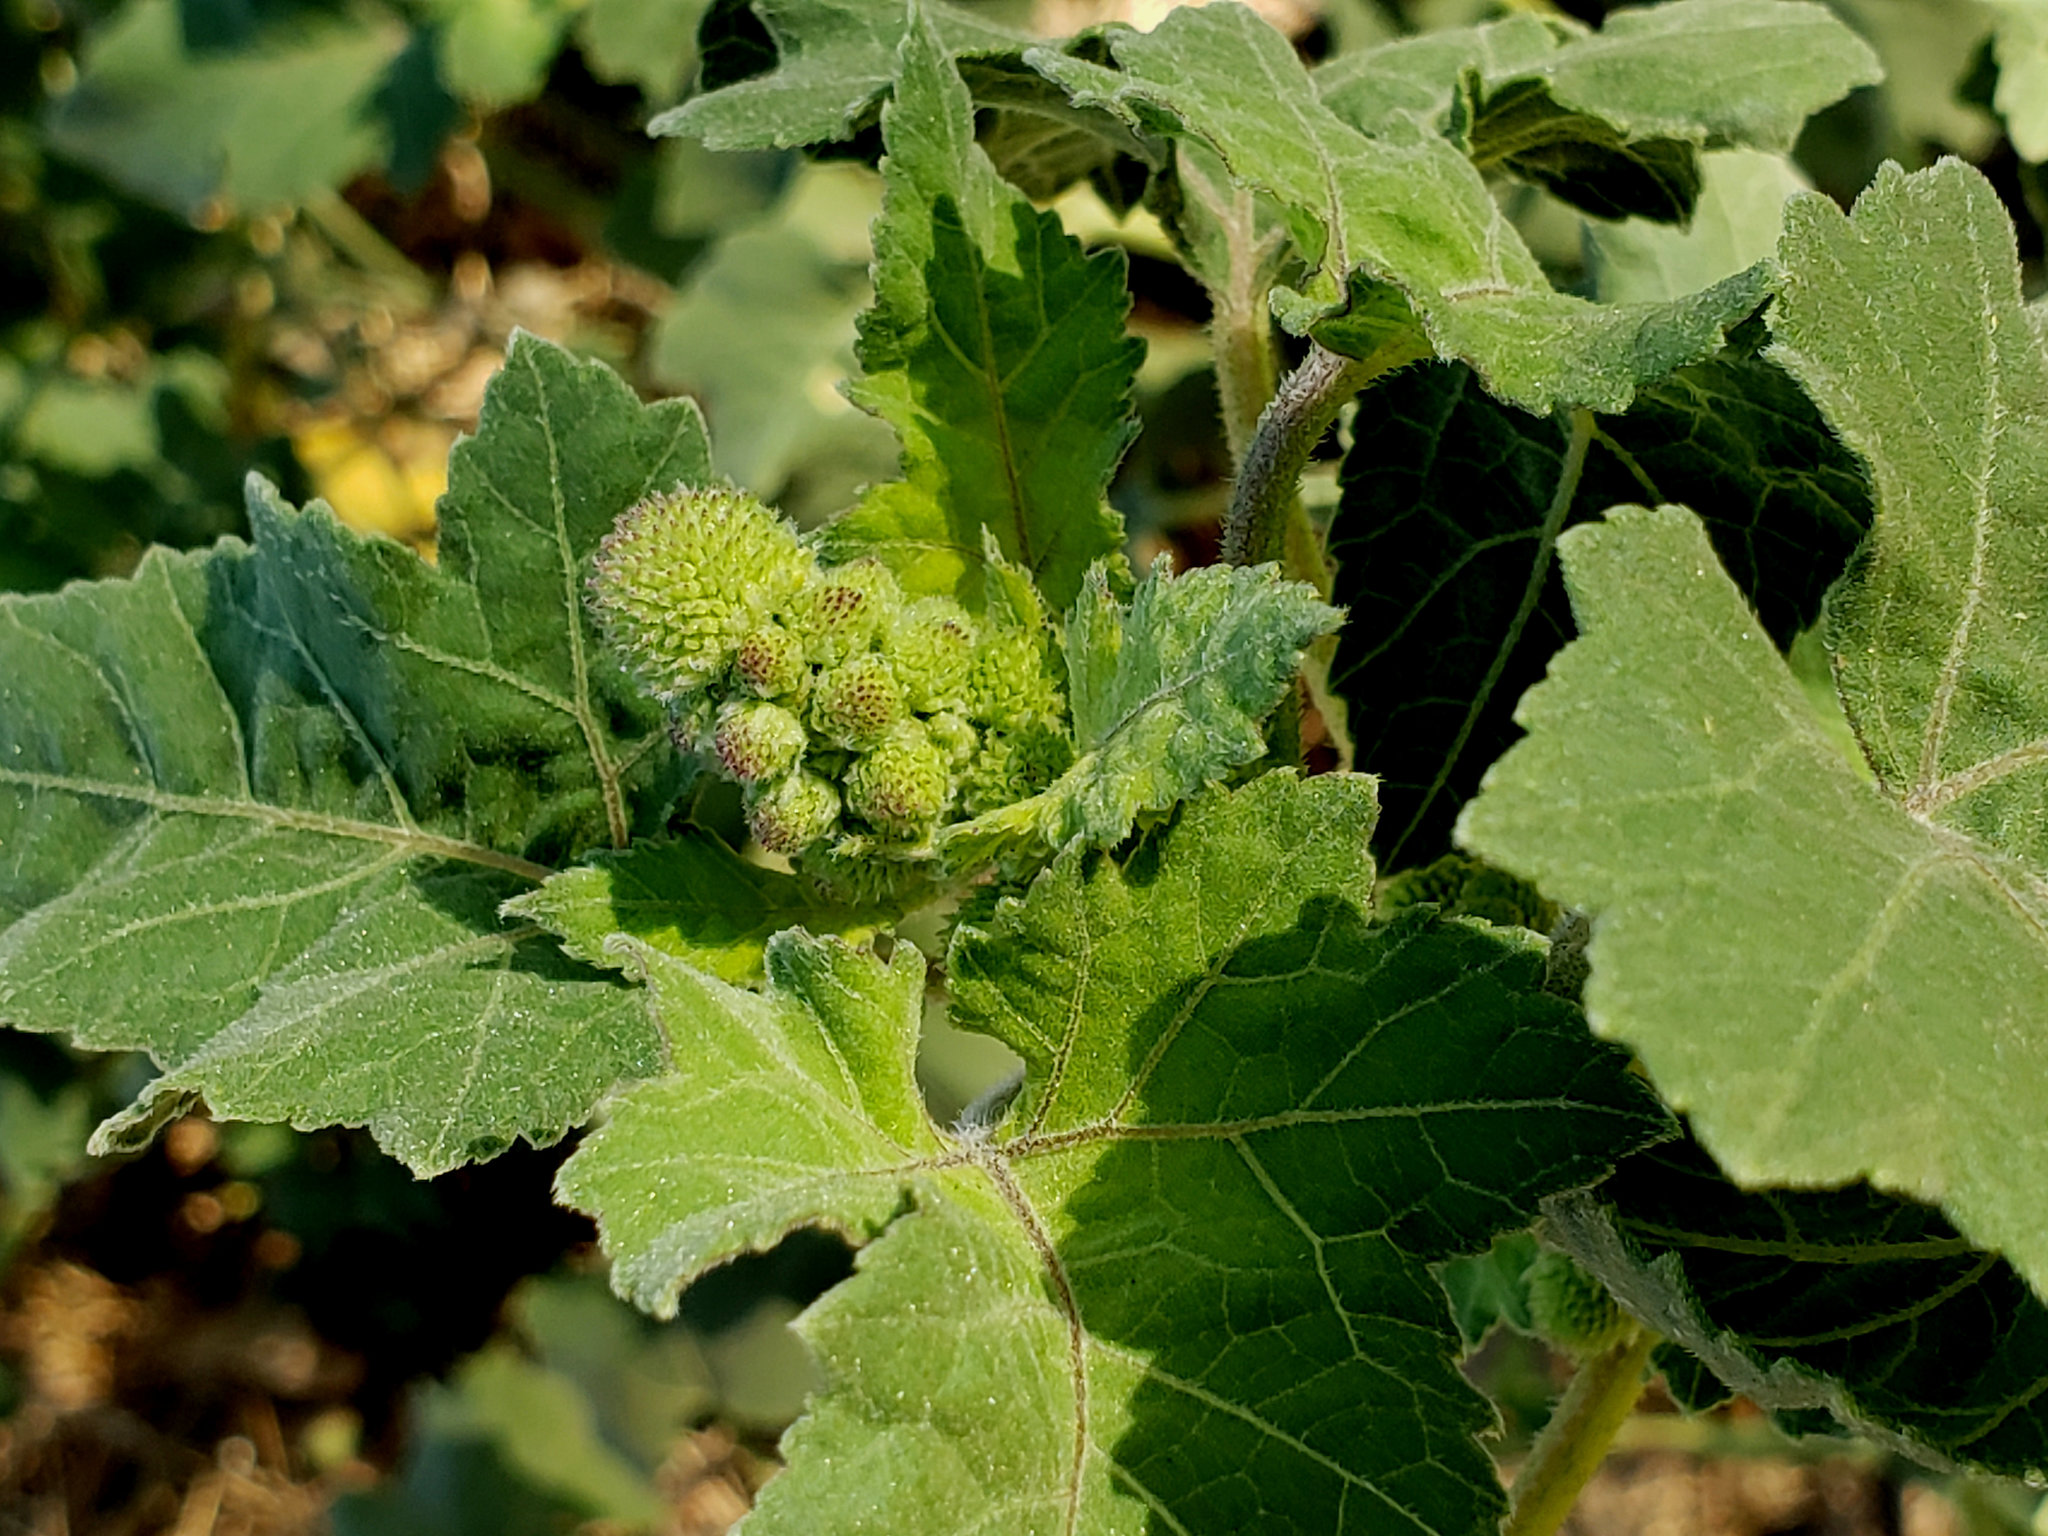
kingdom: Plantae
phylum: Tracheophyta
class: Magnoliopsida
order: Asterales
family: Asteraceae
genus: Xanthium
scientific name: Xanthium strumarium
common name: Rough cocklebur
